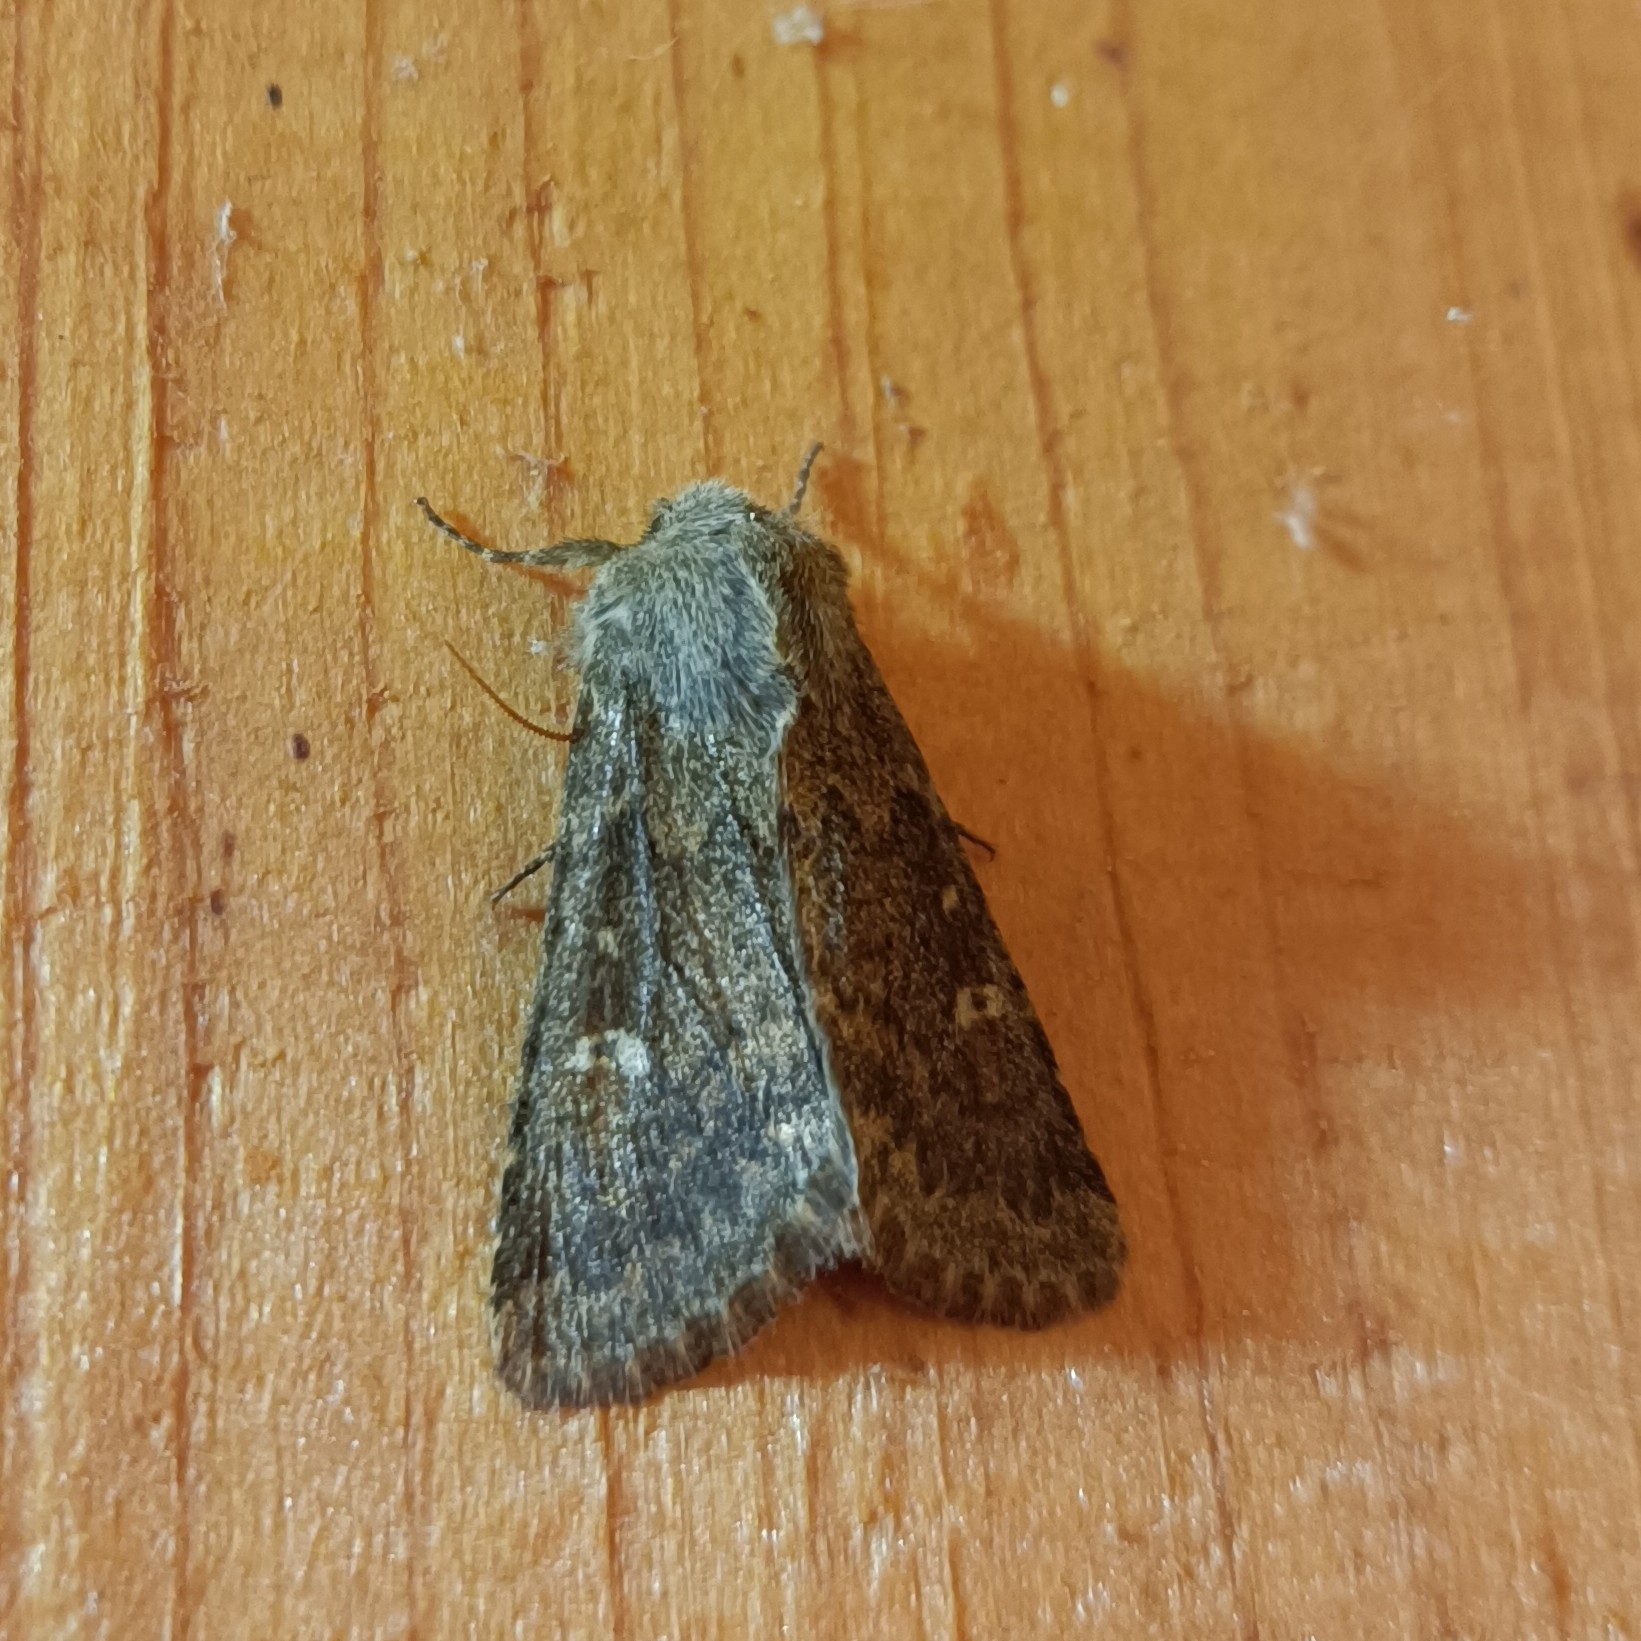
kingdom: Animalia
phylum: Arthropoda
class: Insecta
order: Lepidoptera
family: Noctuidae
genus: Dasypolia
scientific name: Dasypolia templi
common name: Brindled ochre
